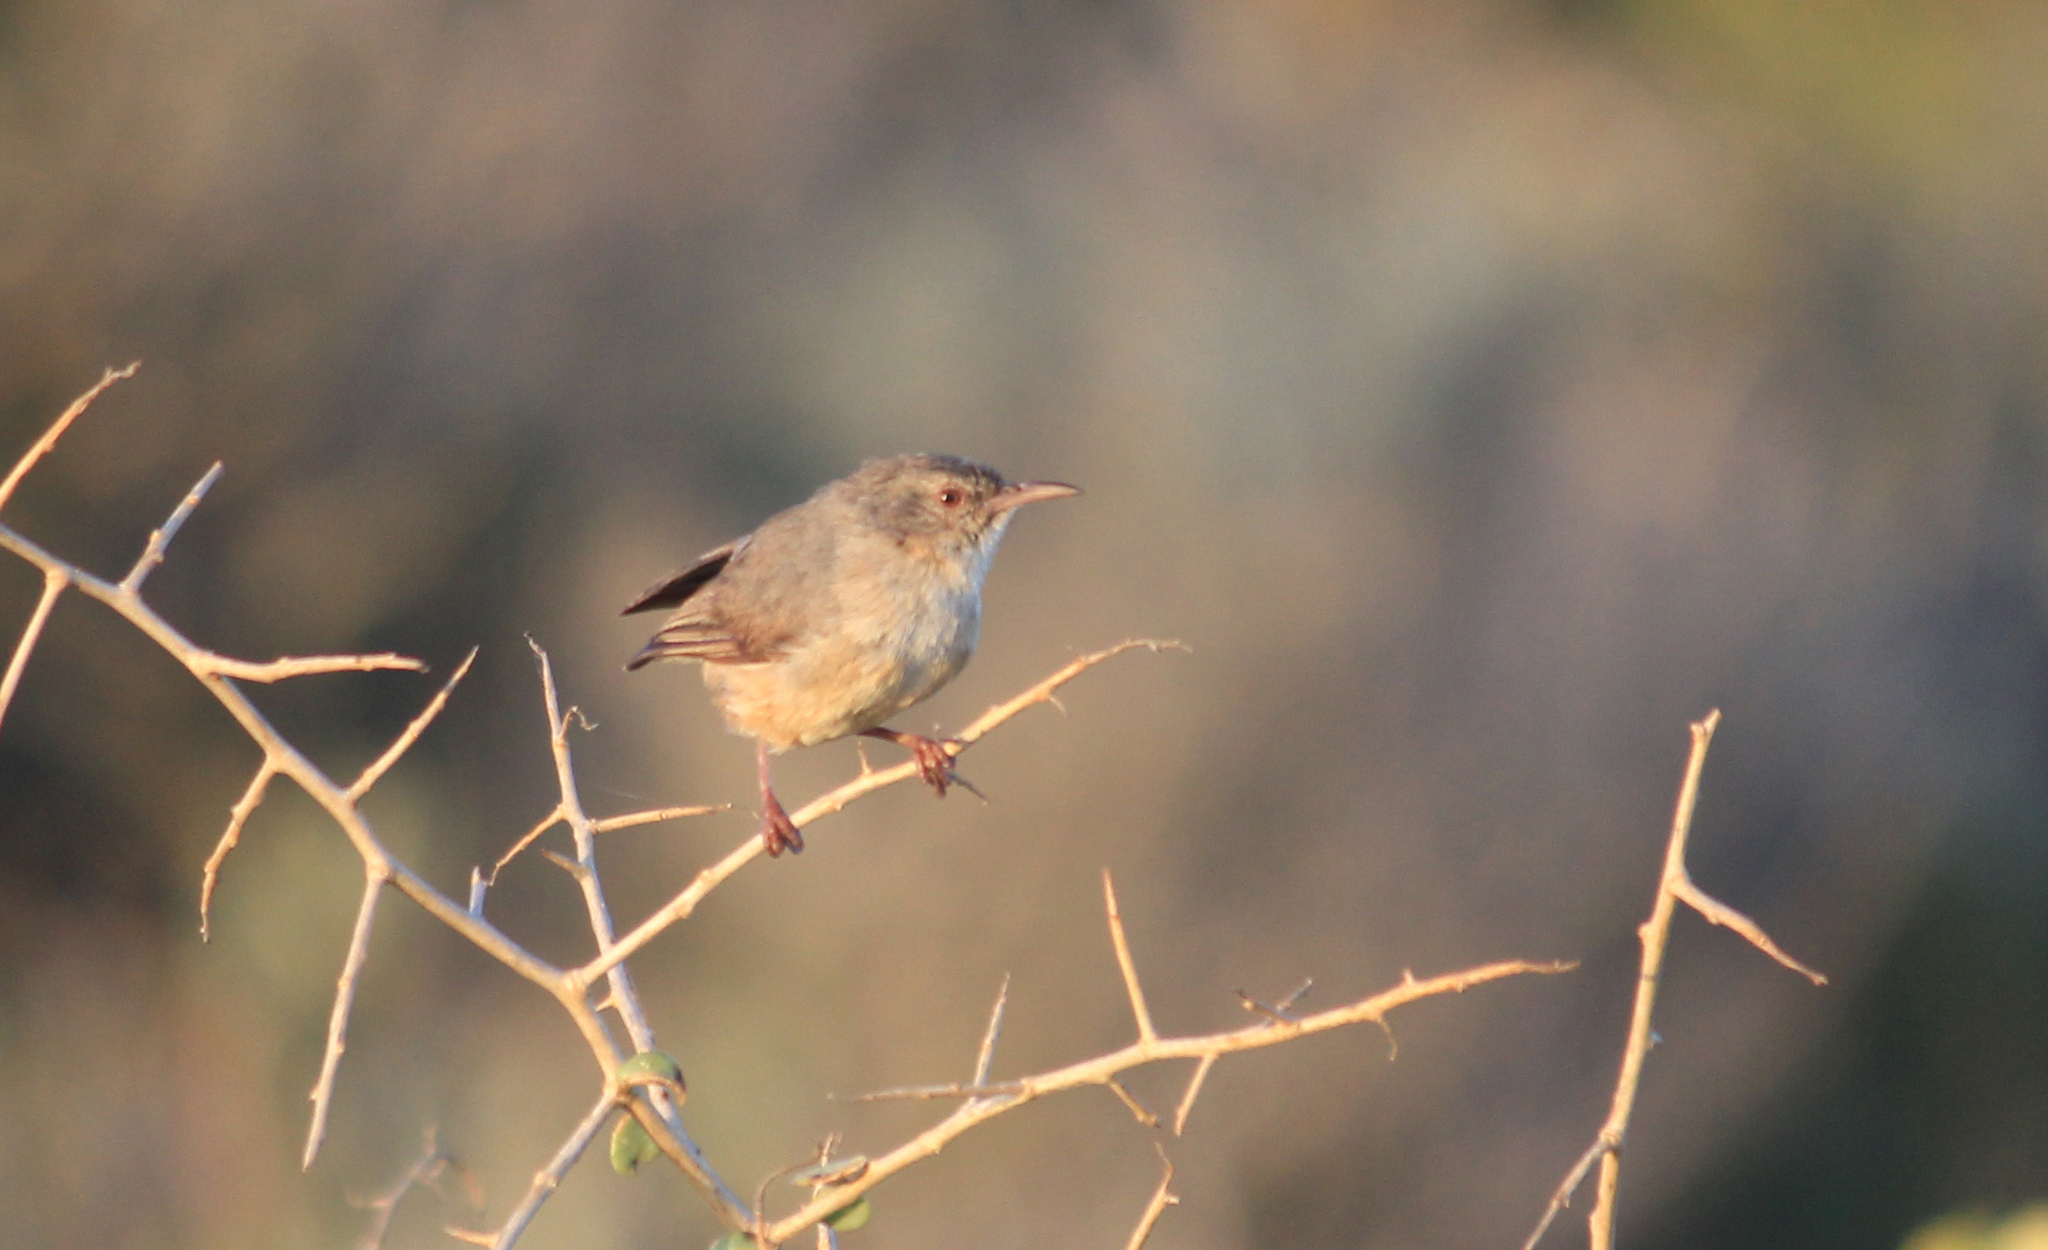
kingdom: Animalia
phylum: Chordata
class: Aves
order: Passeriformes
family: Macrosphenidae
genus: Sylvietta
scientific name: Sylvietta rufescens
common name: Long-billed crombec
